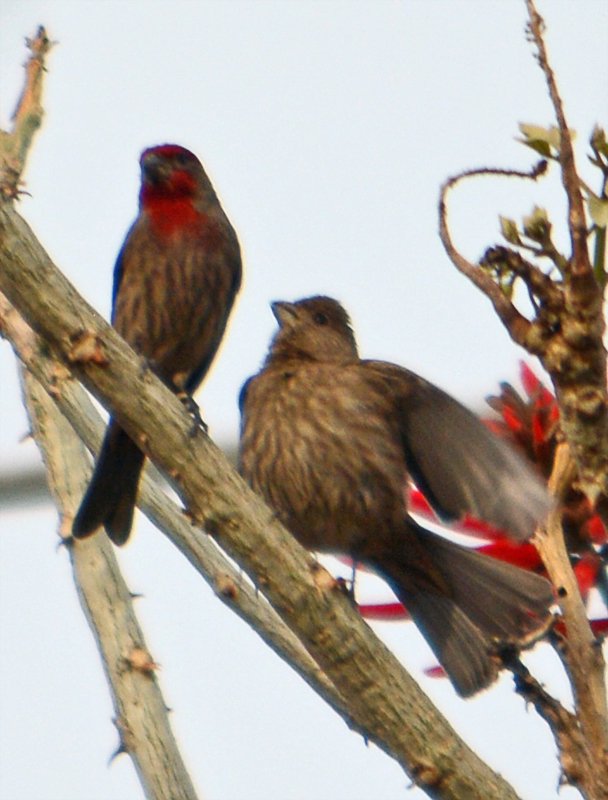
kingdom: Animalia
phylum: Chordata
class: Aves
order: Passeriformes
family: Fringillidae
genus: Haemorhous
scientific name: Haemorhous mexicanus
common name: House finch
